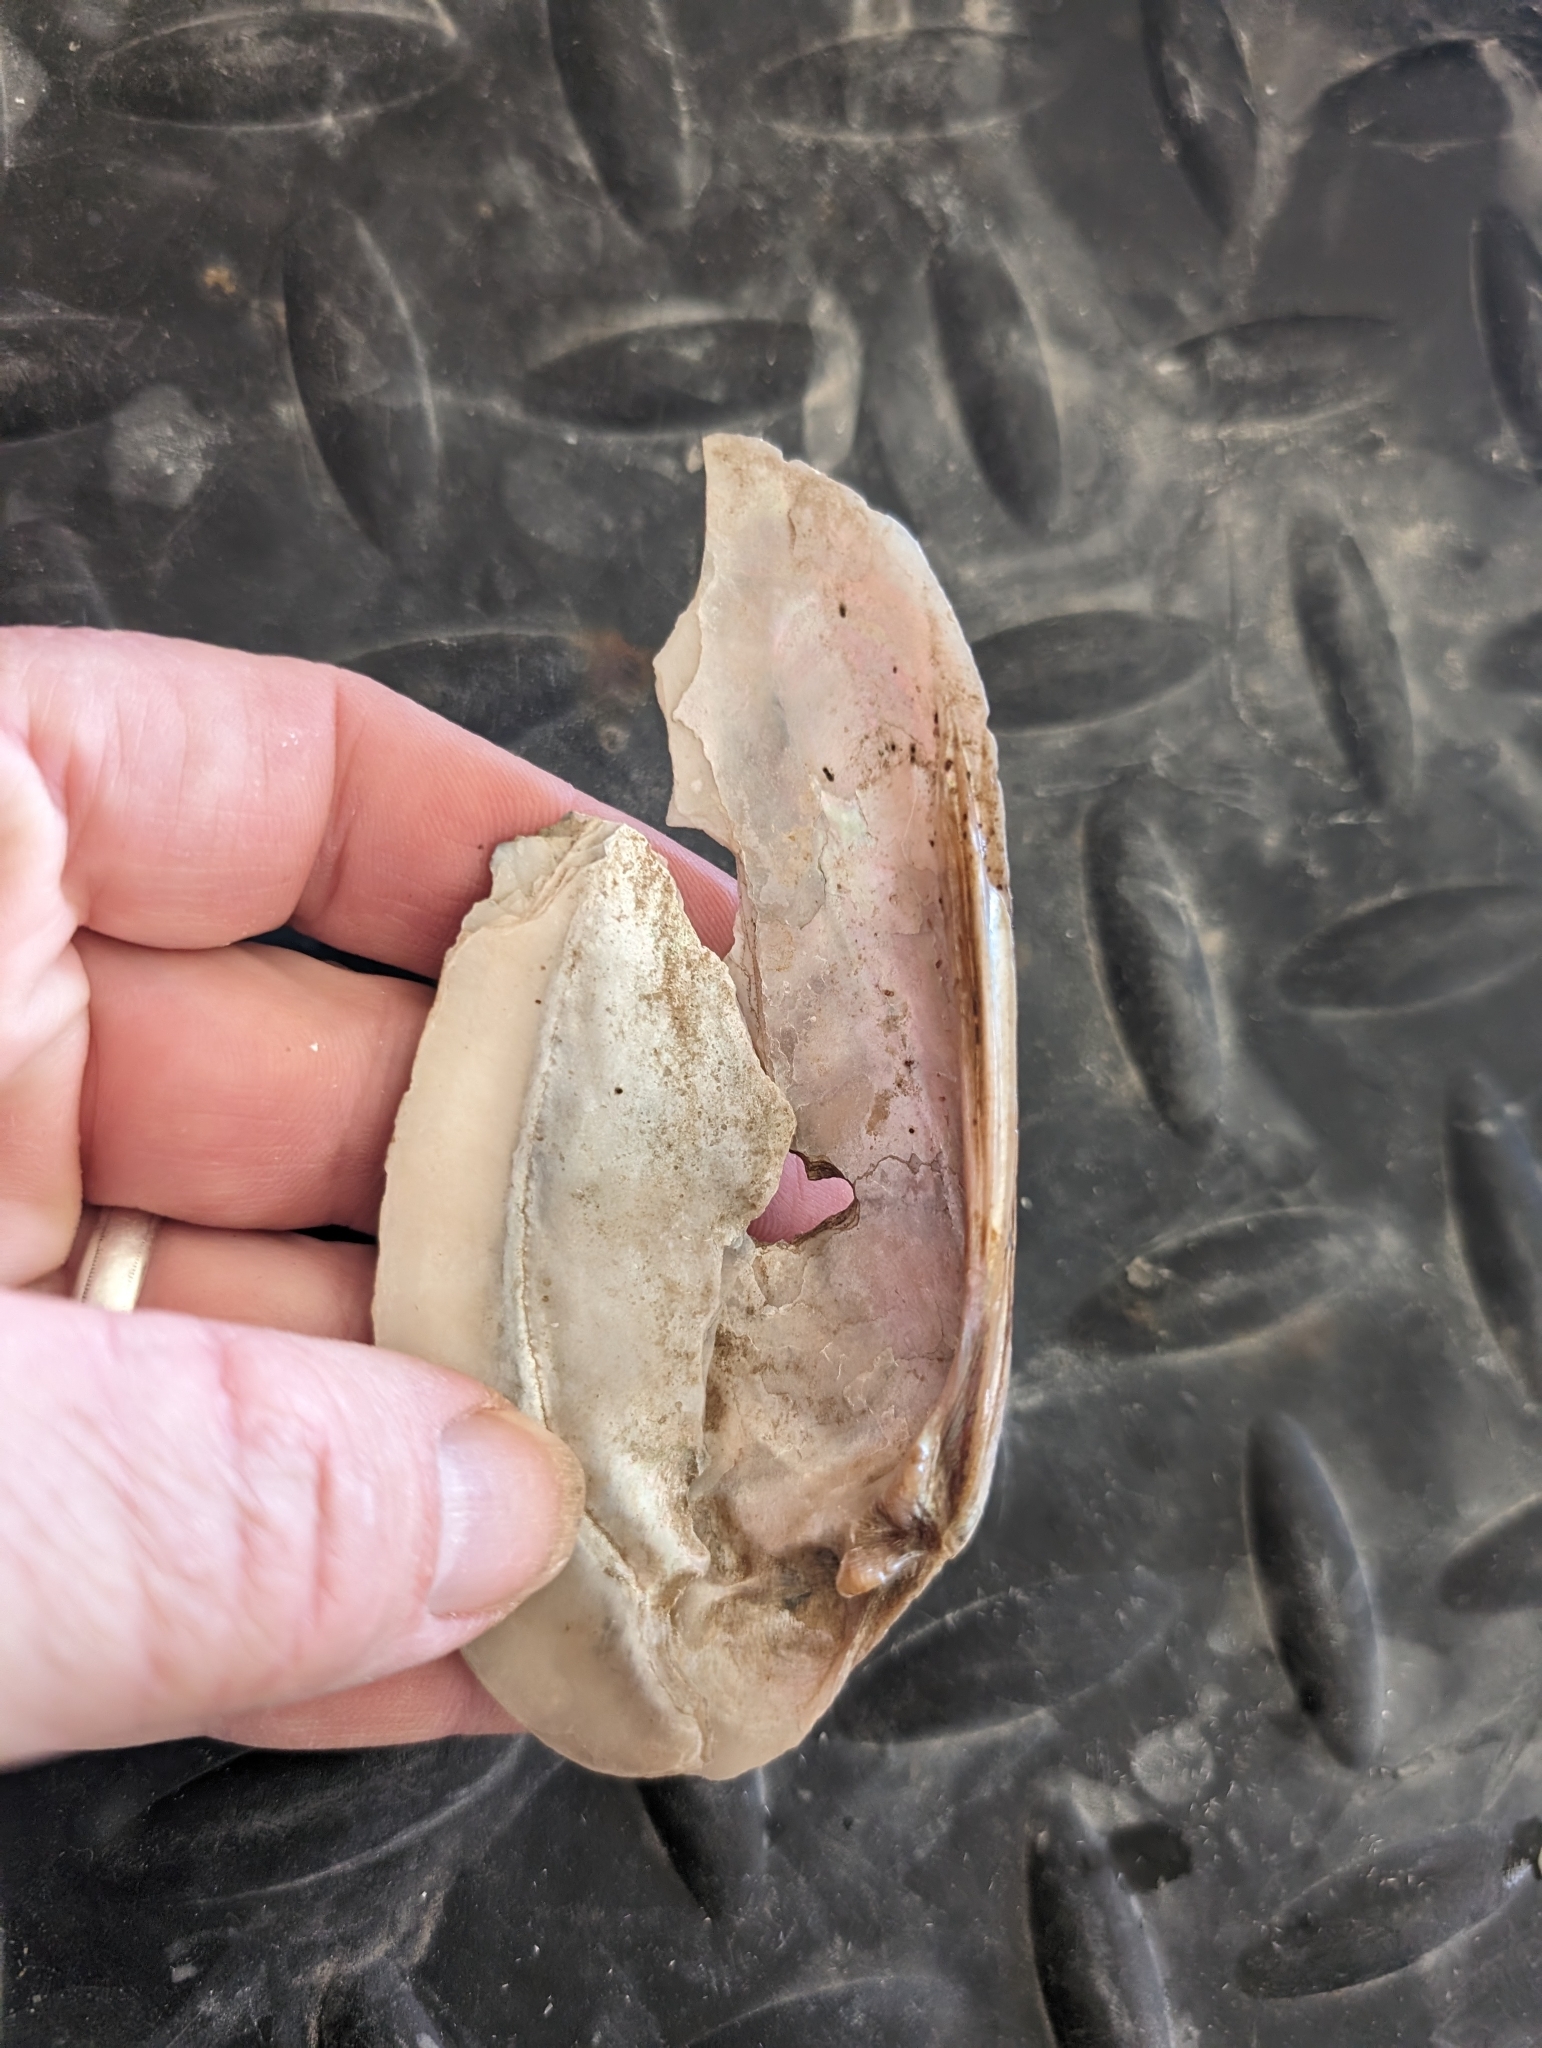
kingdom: Animalia
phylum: Mollusca
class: Bivalvia
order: Unionida
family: Unionidae
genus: Ligumia
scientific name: Ligumia recta
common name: Black sandshell
